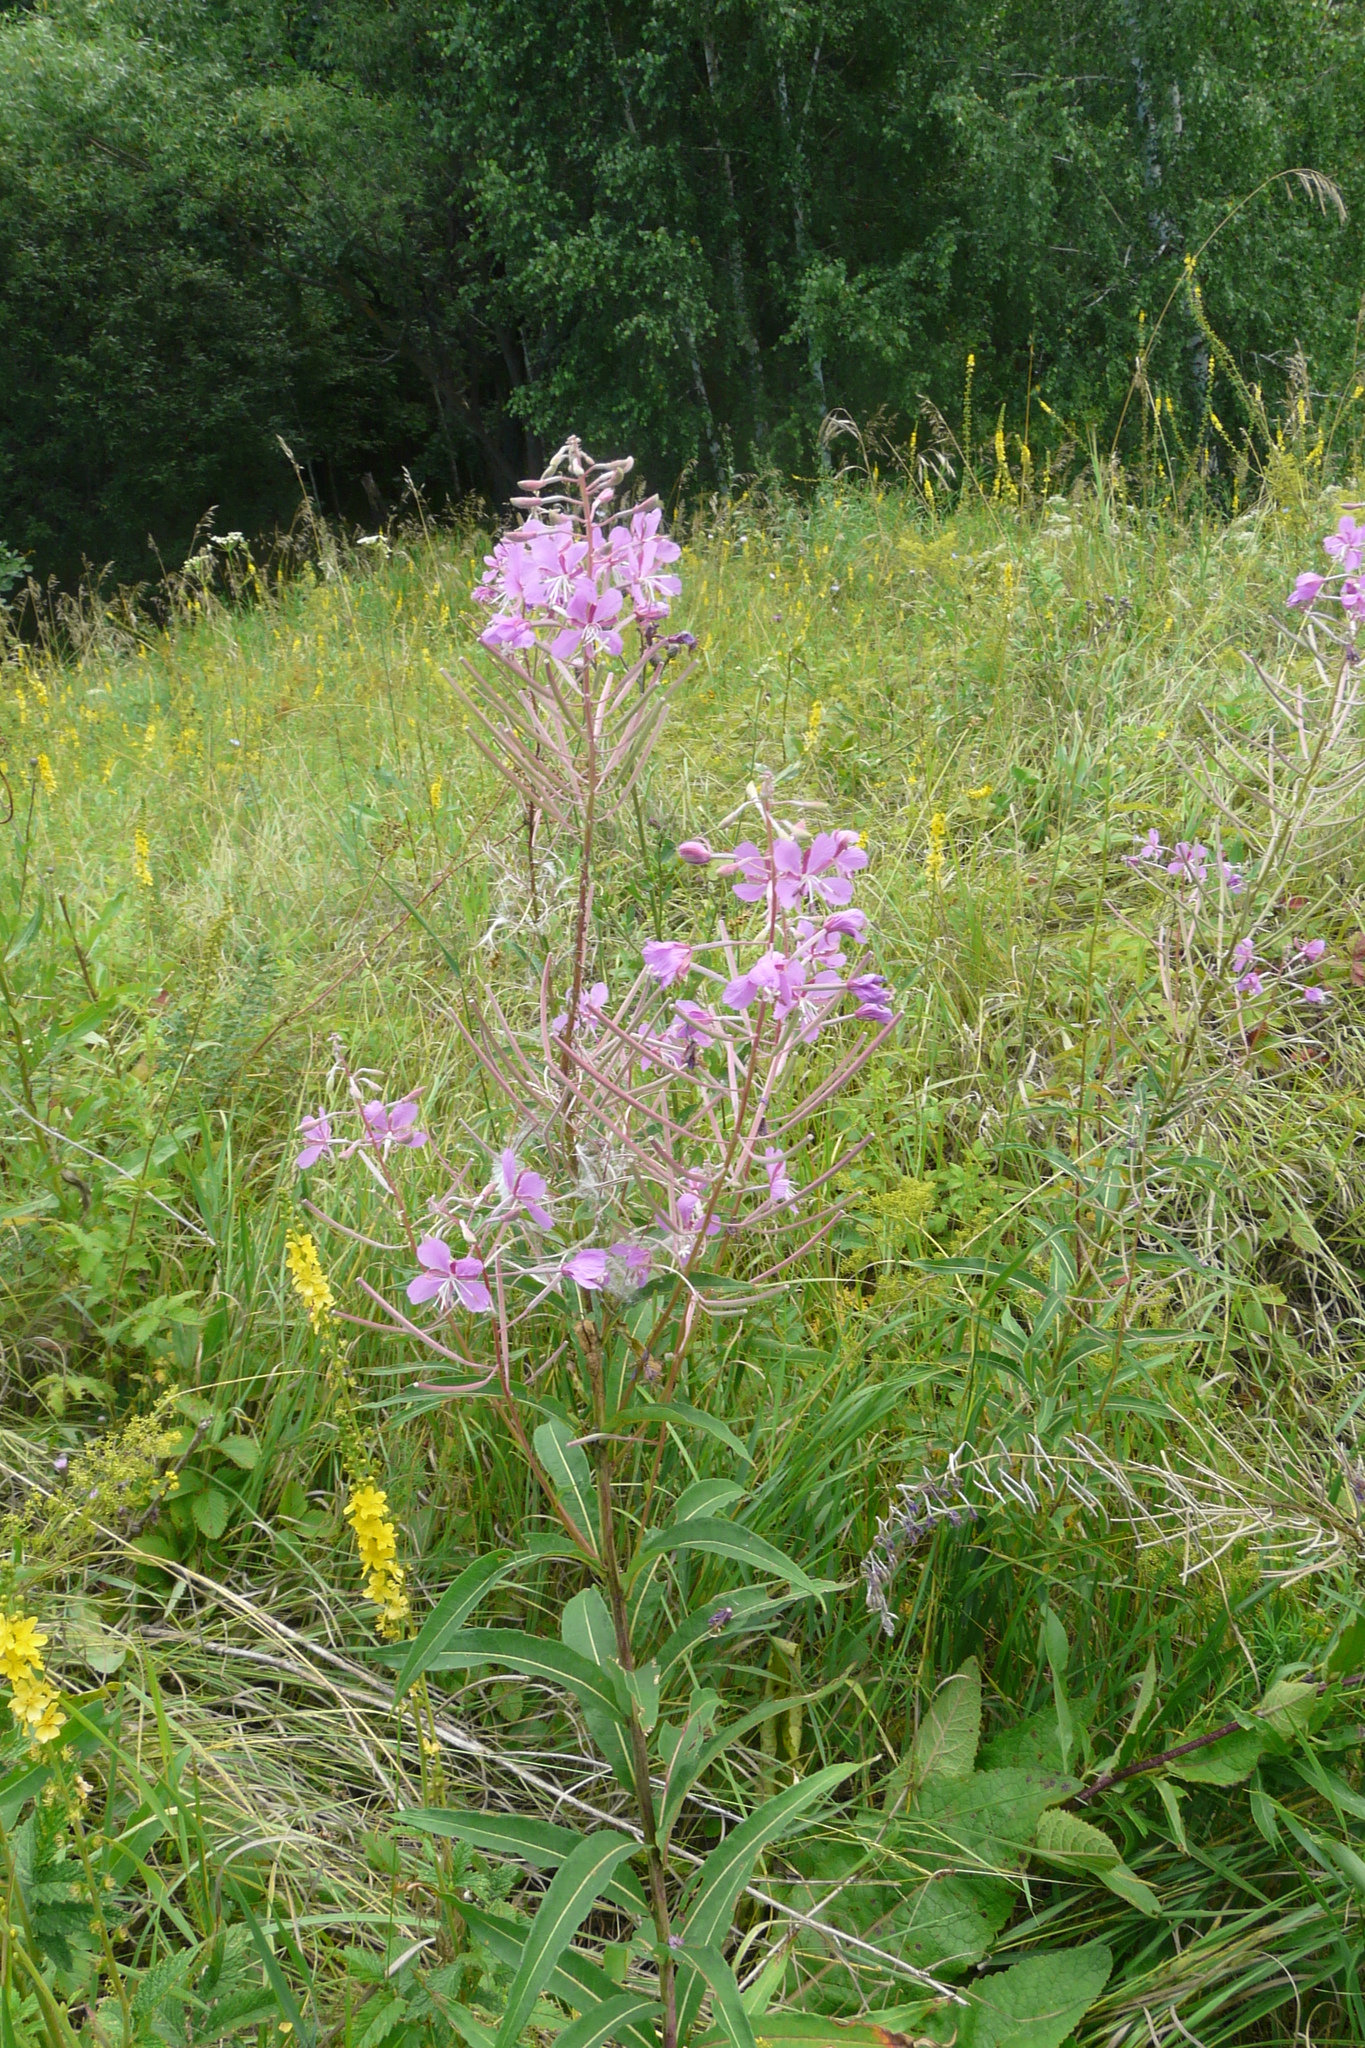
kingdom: Plantae
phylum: Tracheophyta
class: Magnoliopsida
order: Myrtales
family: Onagraceae
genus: Chamaenerion
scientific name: Chamaenerion angustifolium
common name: Fireweed
